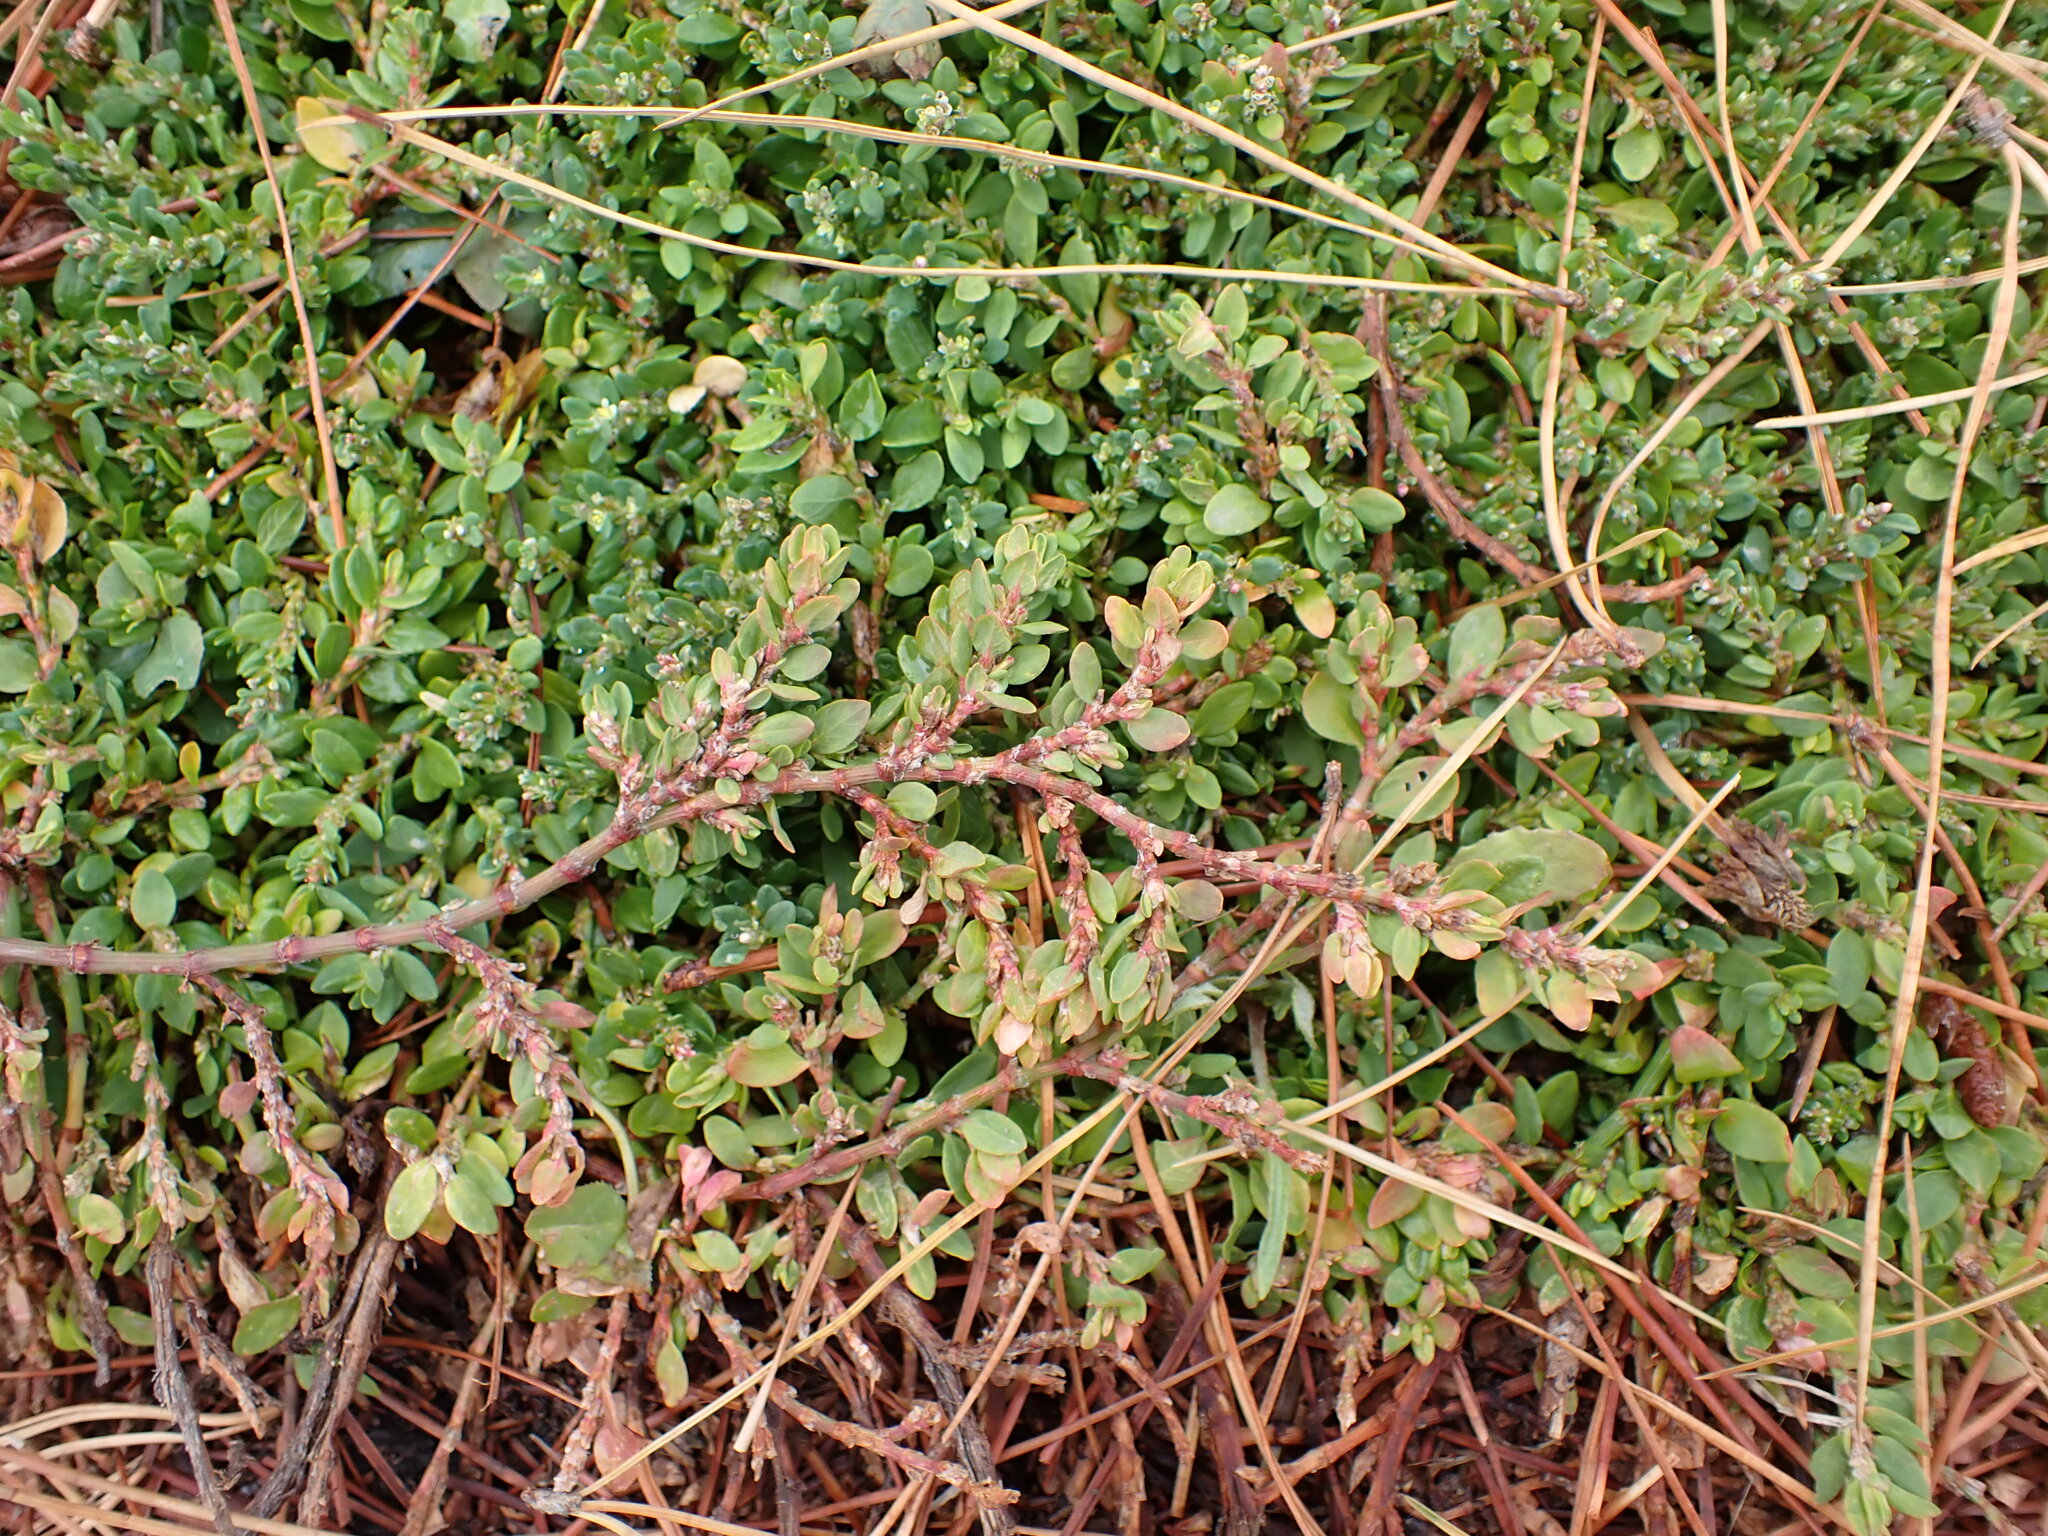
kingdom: Plantae
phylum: Tracheophyta
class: Magnoliopsida
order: Caryophyllales
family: Polygonaceae
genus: Polygonum
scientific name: Polygonum arenastrum
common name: Equal-leaved knotgrass
